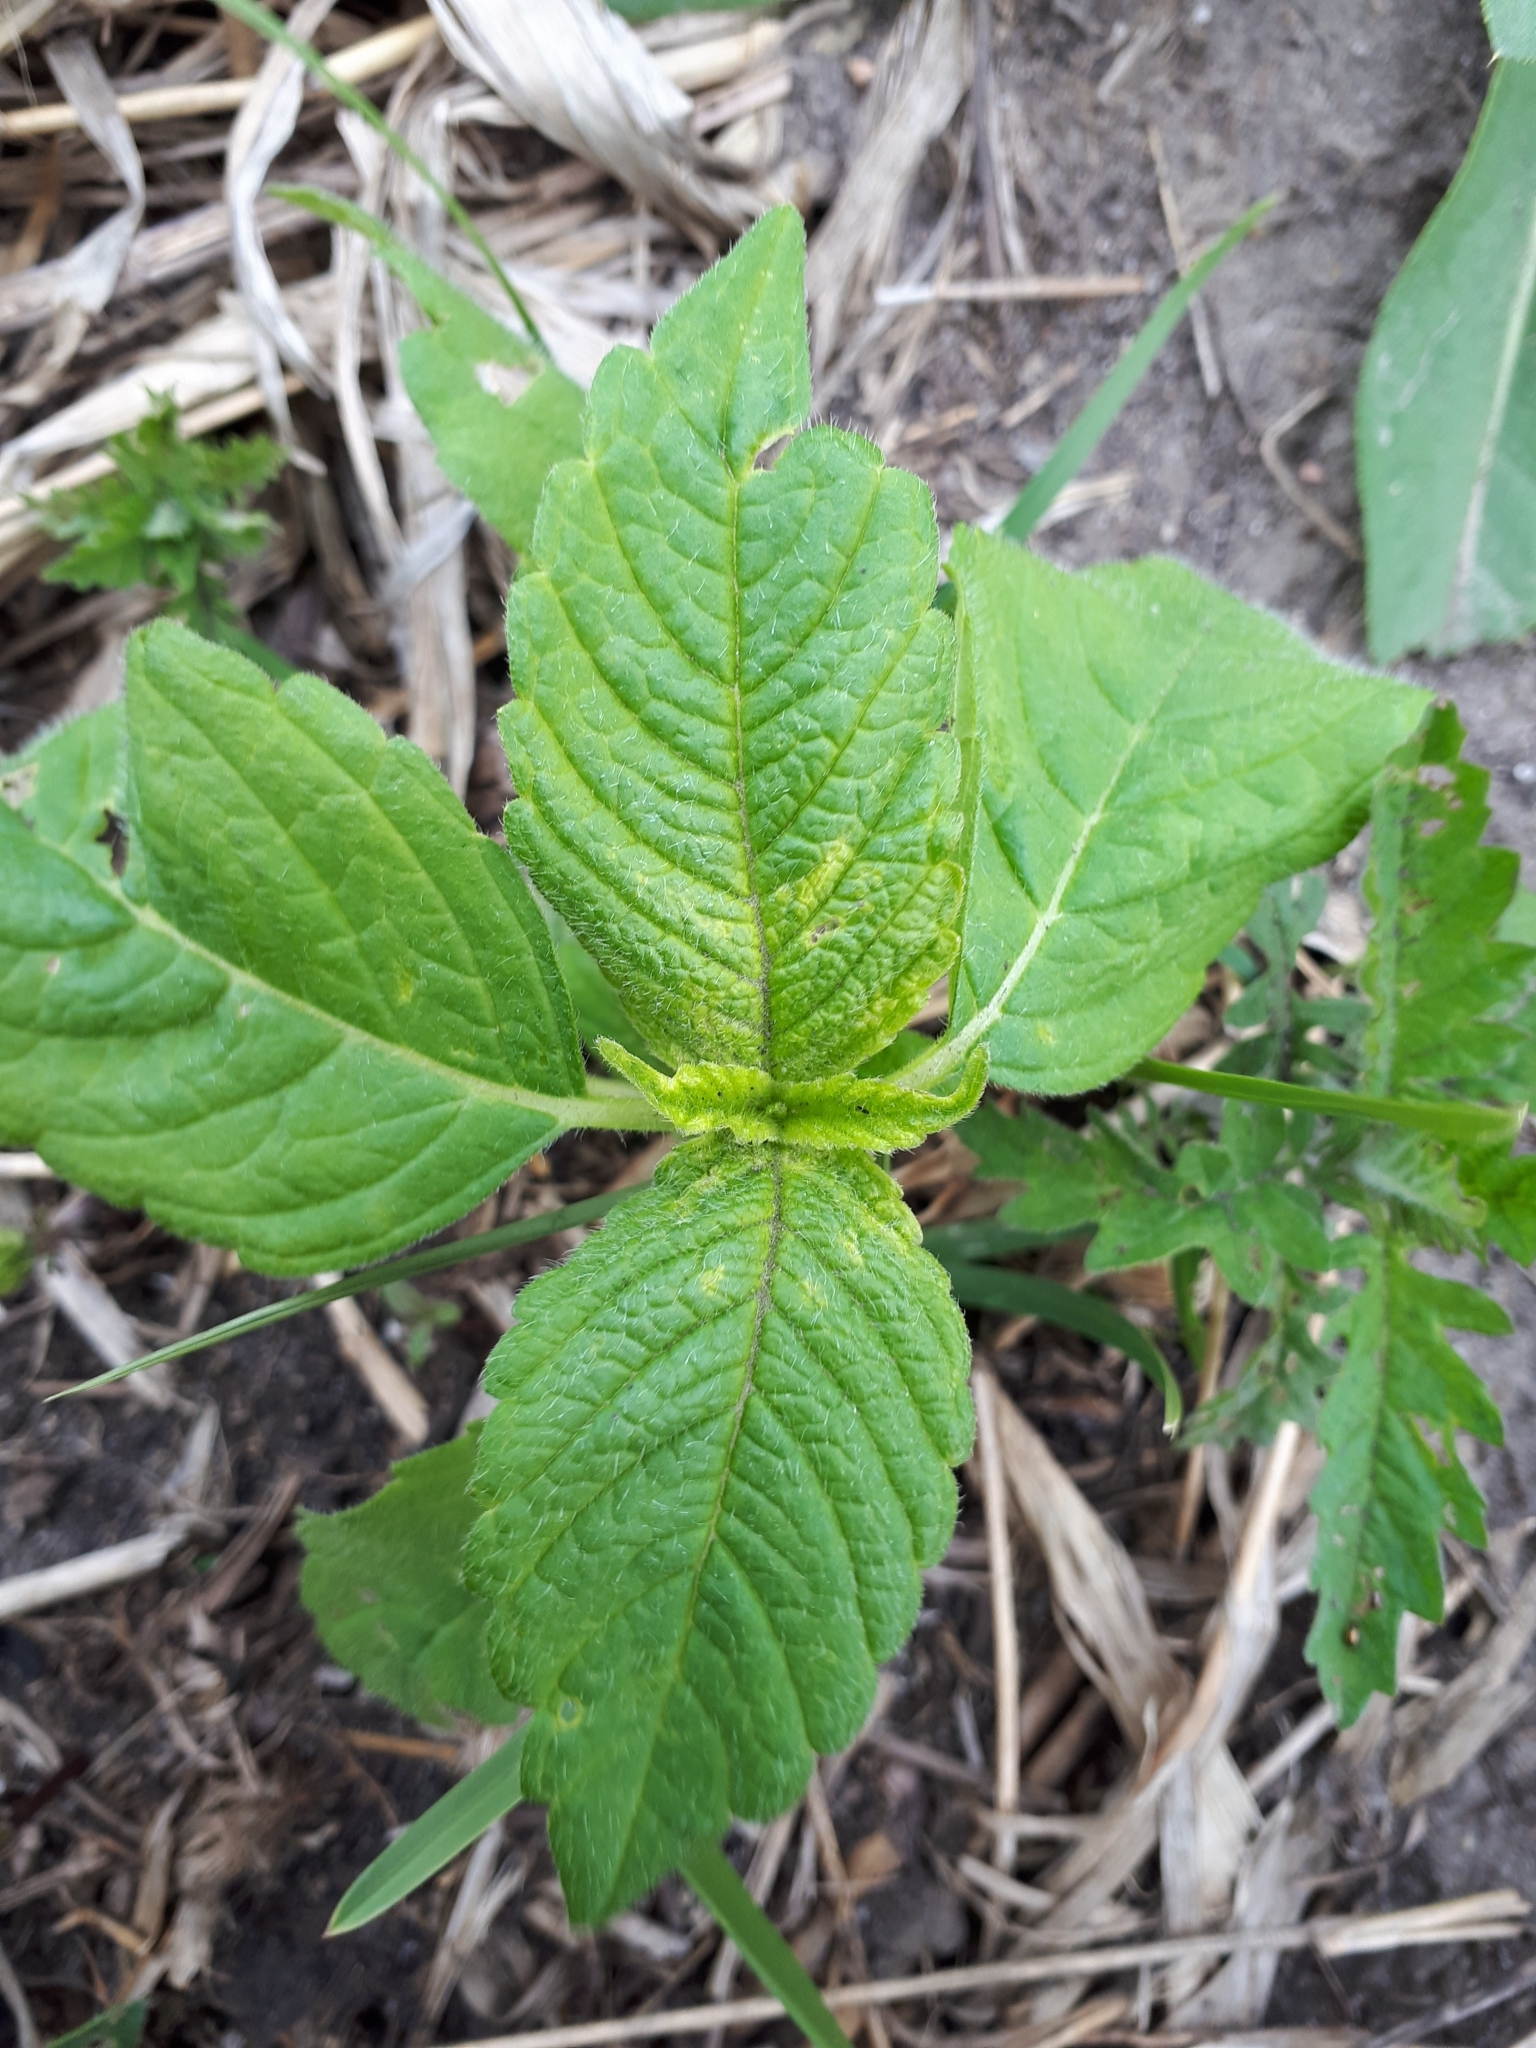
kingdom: Plantae
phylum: Tracheophyta
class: Magnoliopsida
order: Lamiales
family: Lamiaceae
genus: Galeopsis
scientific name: Galeopsis bifida
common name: Bifid hemp-nettle
